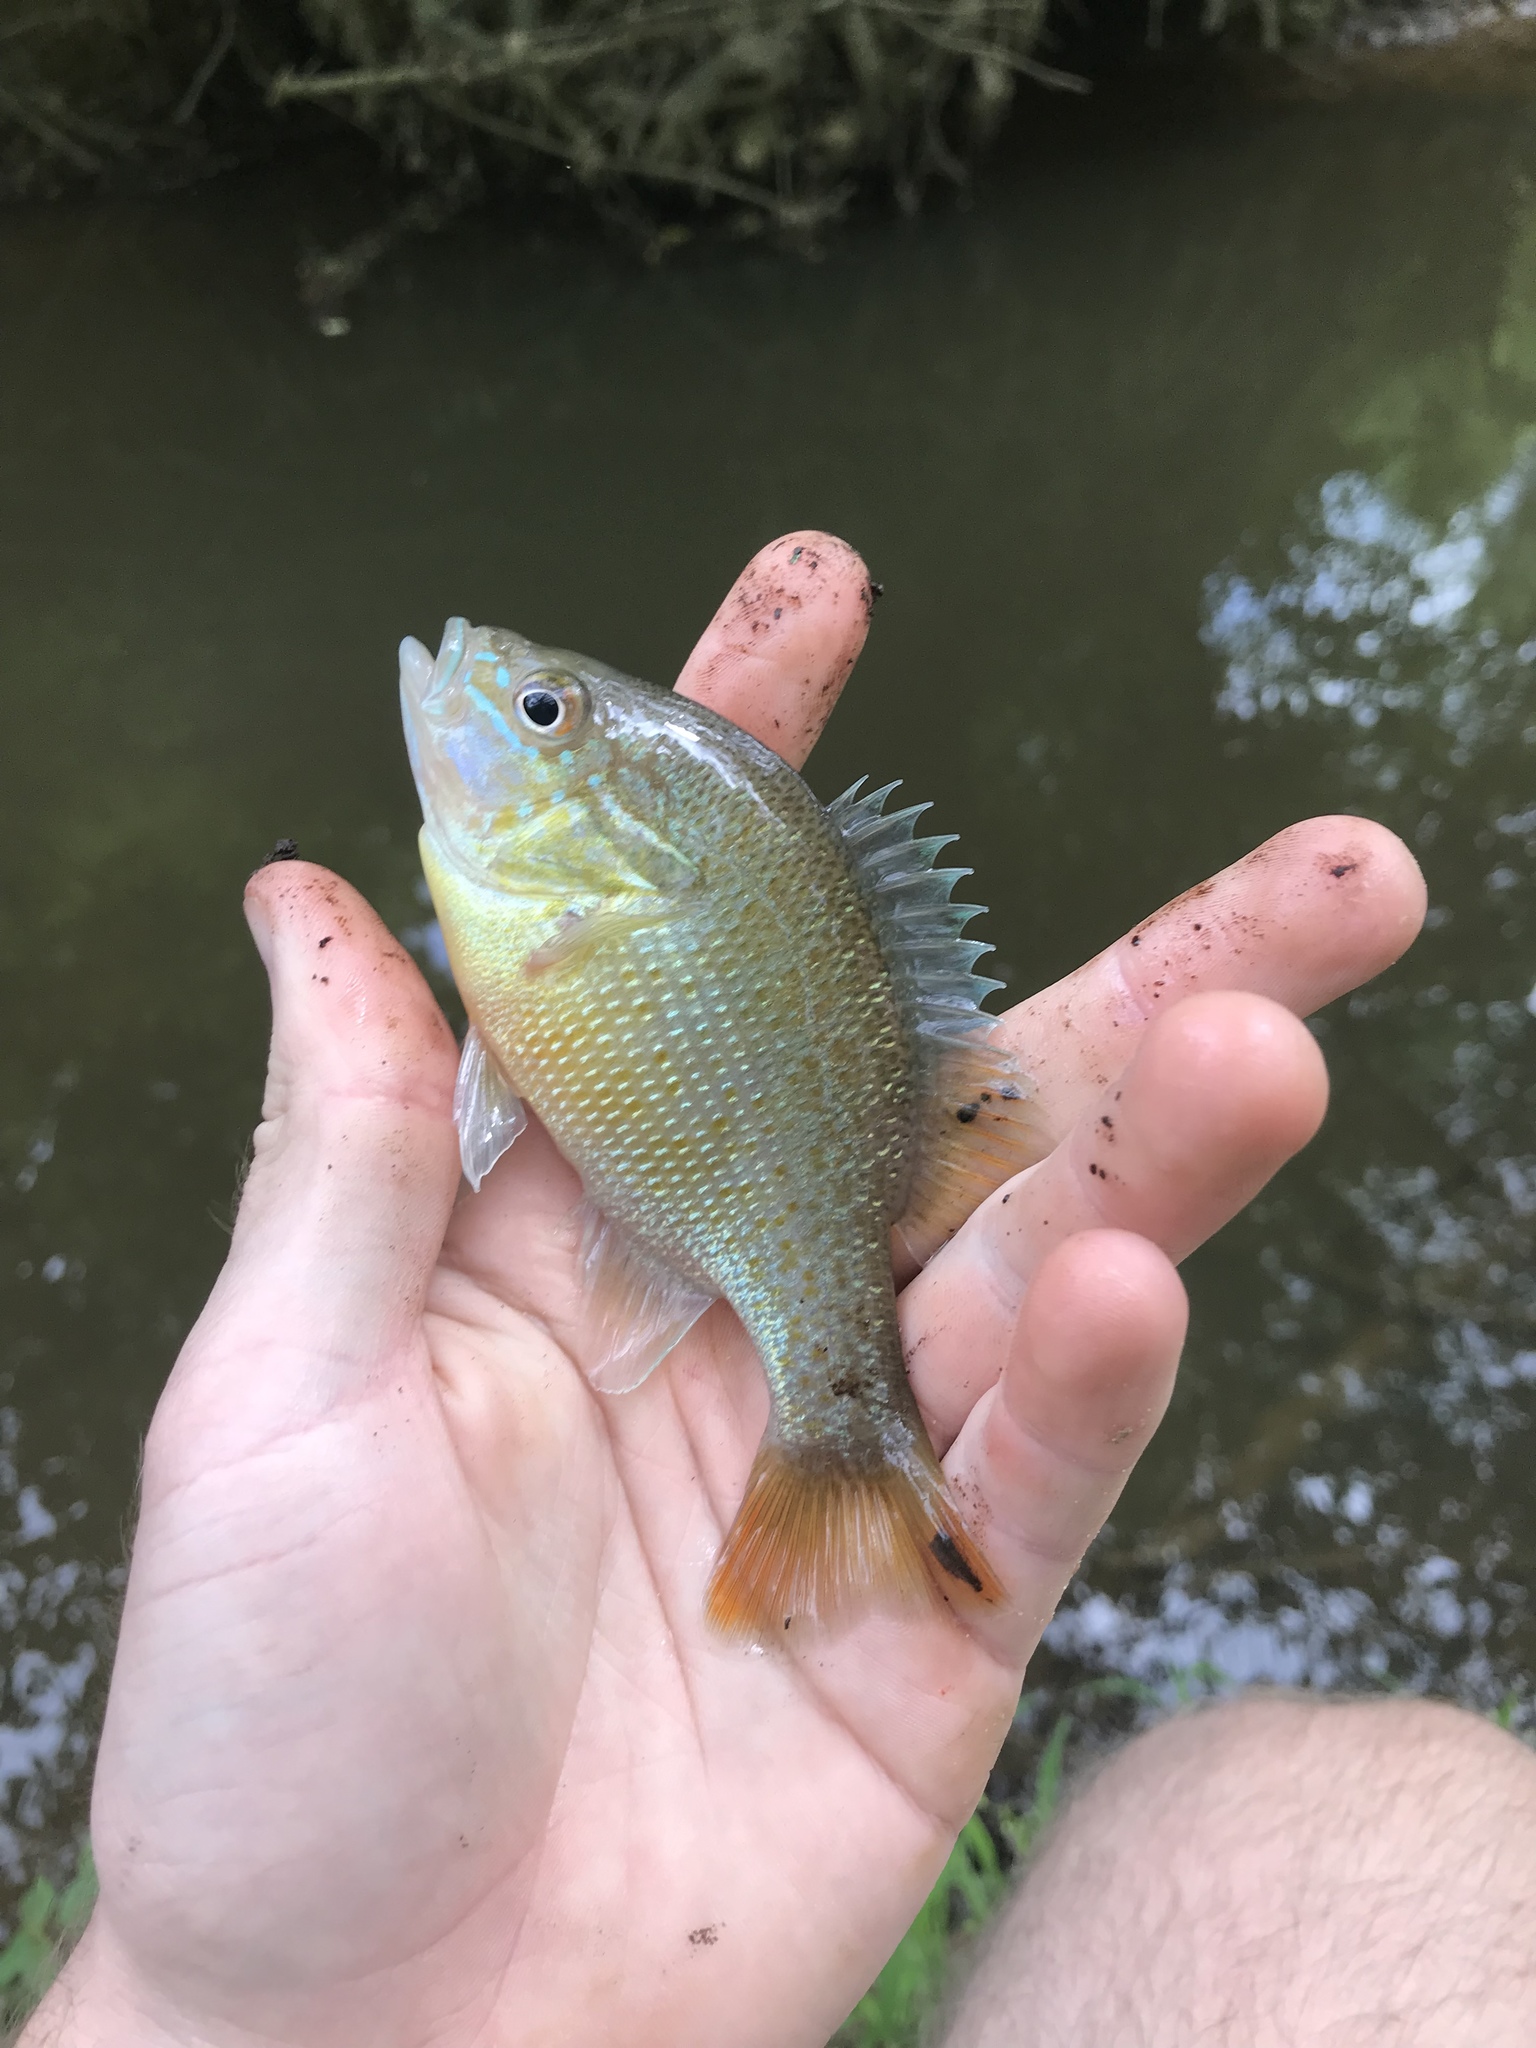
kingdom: Animalia
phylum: Chordata
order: Perciformes
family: Centrarchidae
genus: Lepomis
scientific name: Lepomis auritus
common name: Redbreast sunfish
